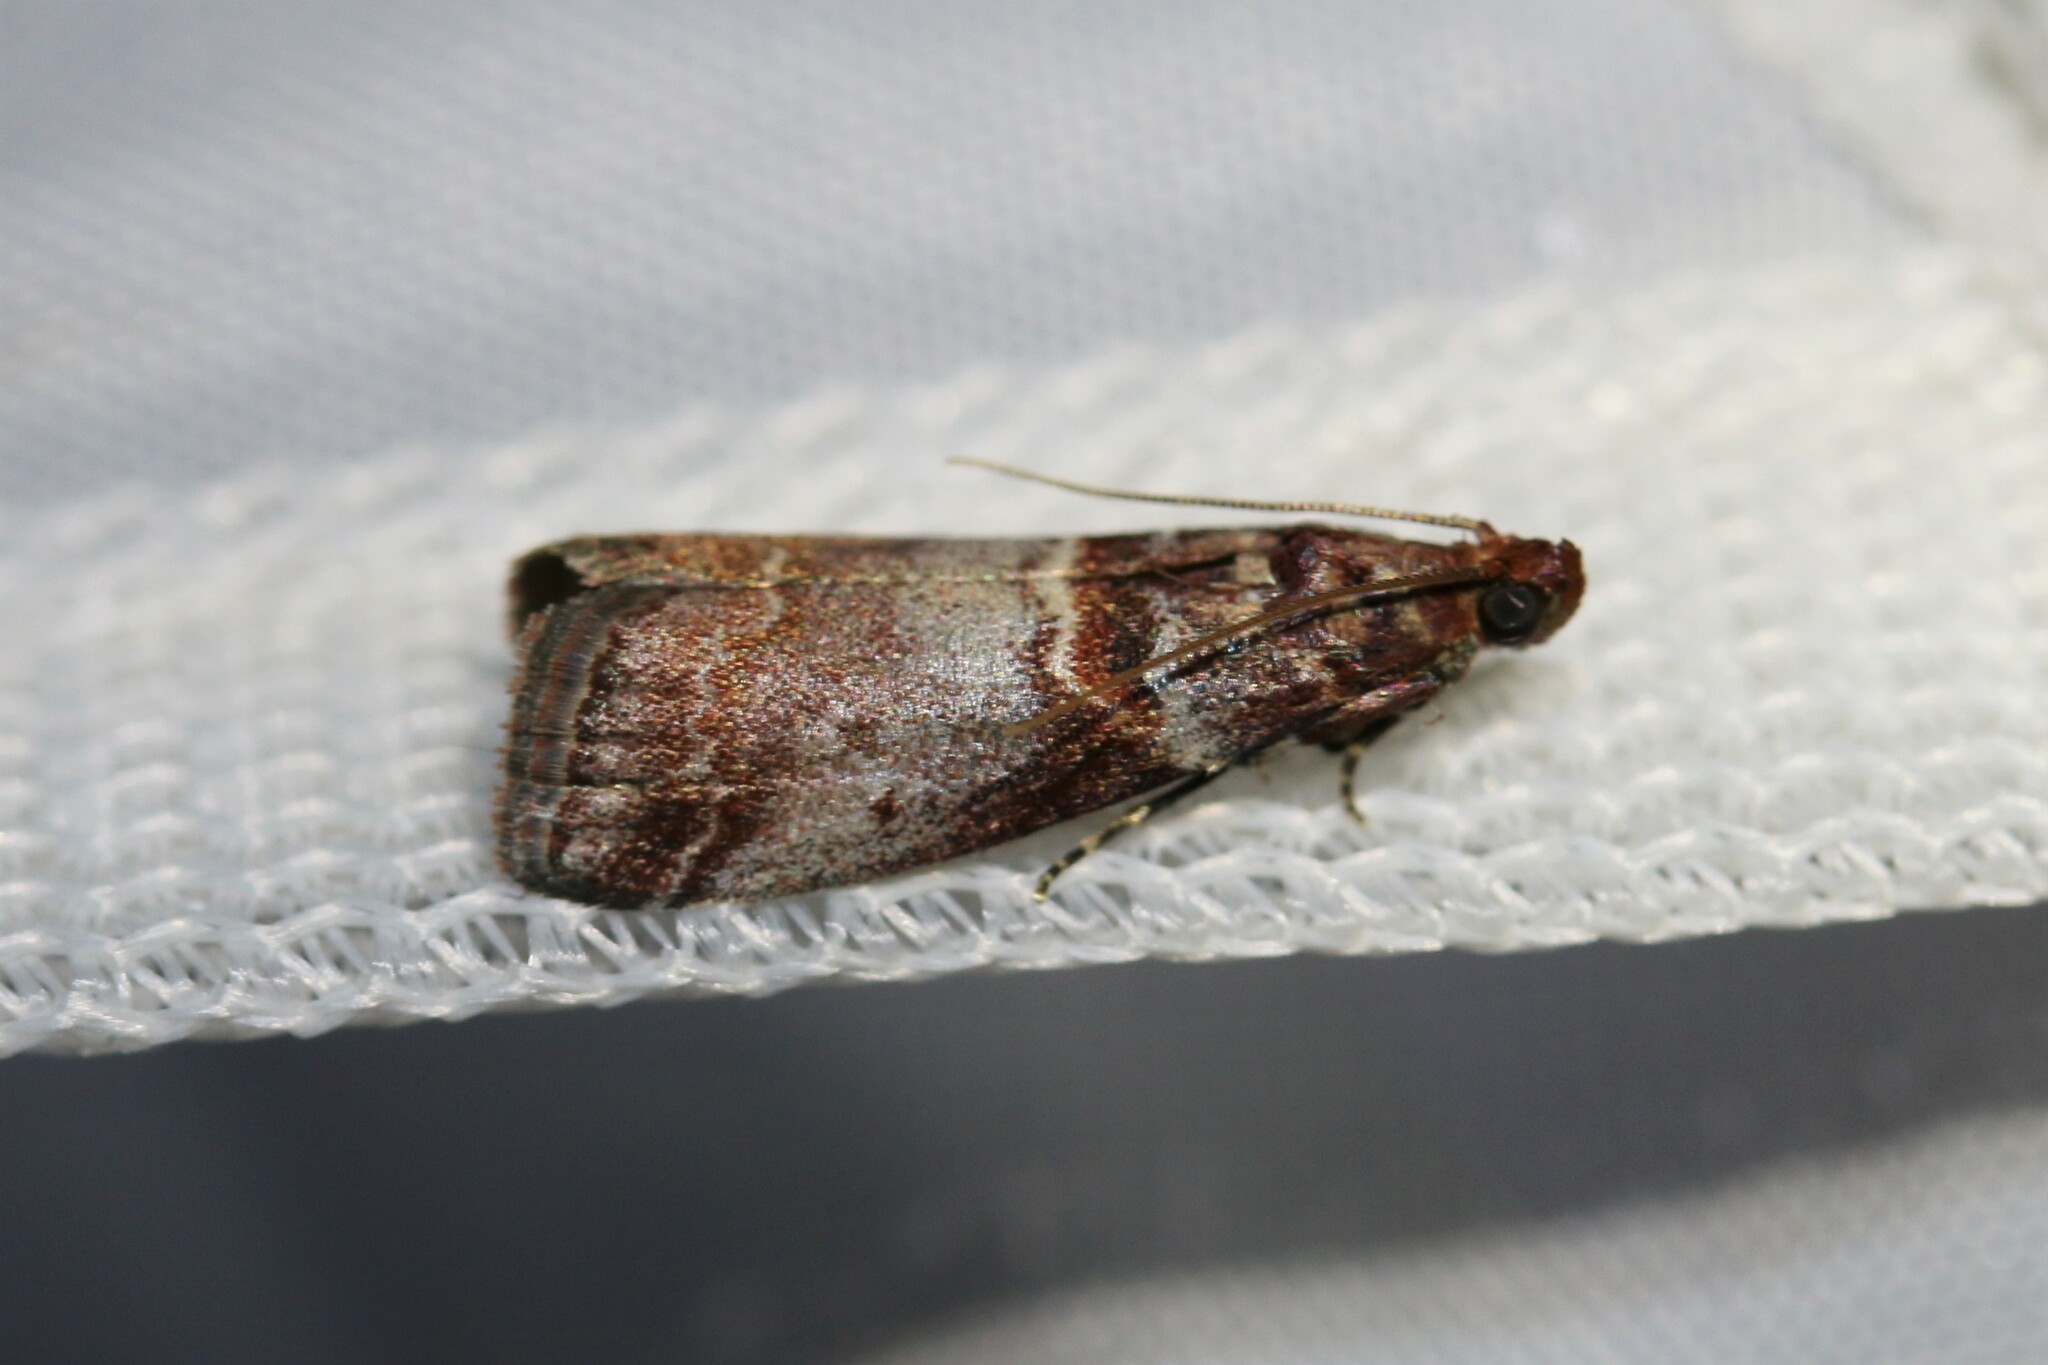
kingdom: Animalia
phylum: Arthropoda
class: Insecta
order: Lepidoptera
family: Pyralidae
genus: Acrobasis
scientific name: Acrobasis advenella
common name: Grey knot-horn
